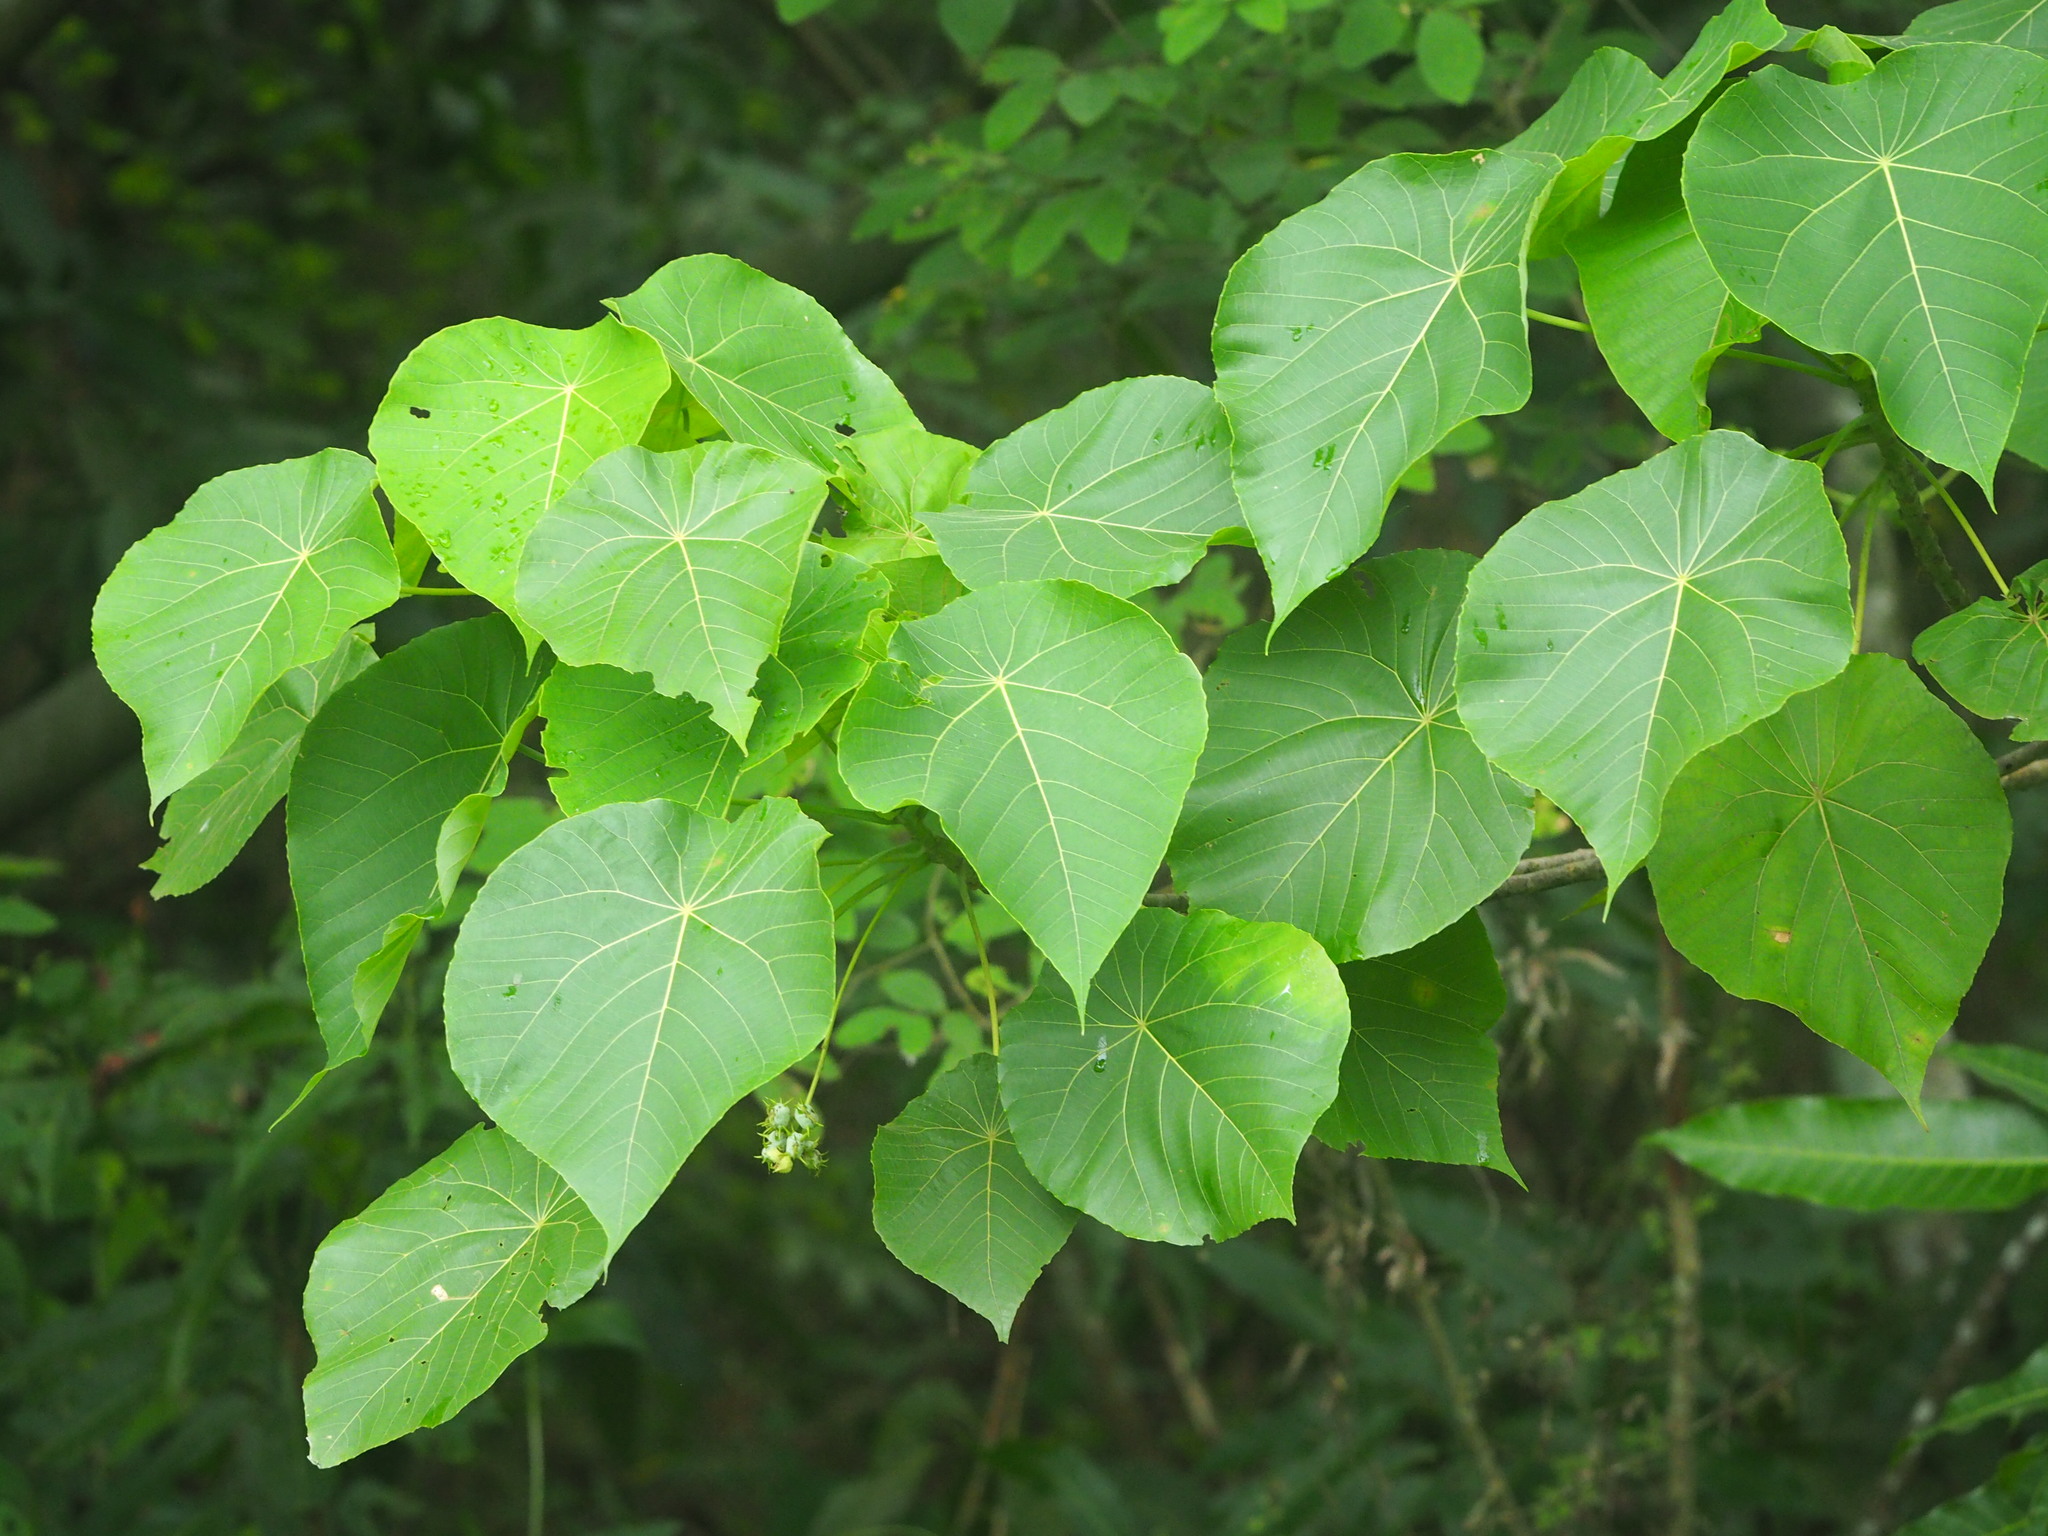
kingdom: Plantae
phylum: Tracheophyta
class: Magnoliopsida
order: Malpighiales
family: Euphorbiaceae
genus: Macaranga
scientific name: Macaranga tanarius
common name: Parasol leaf tree
